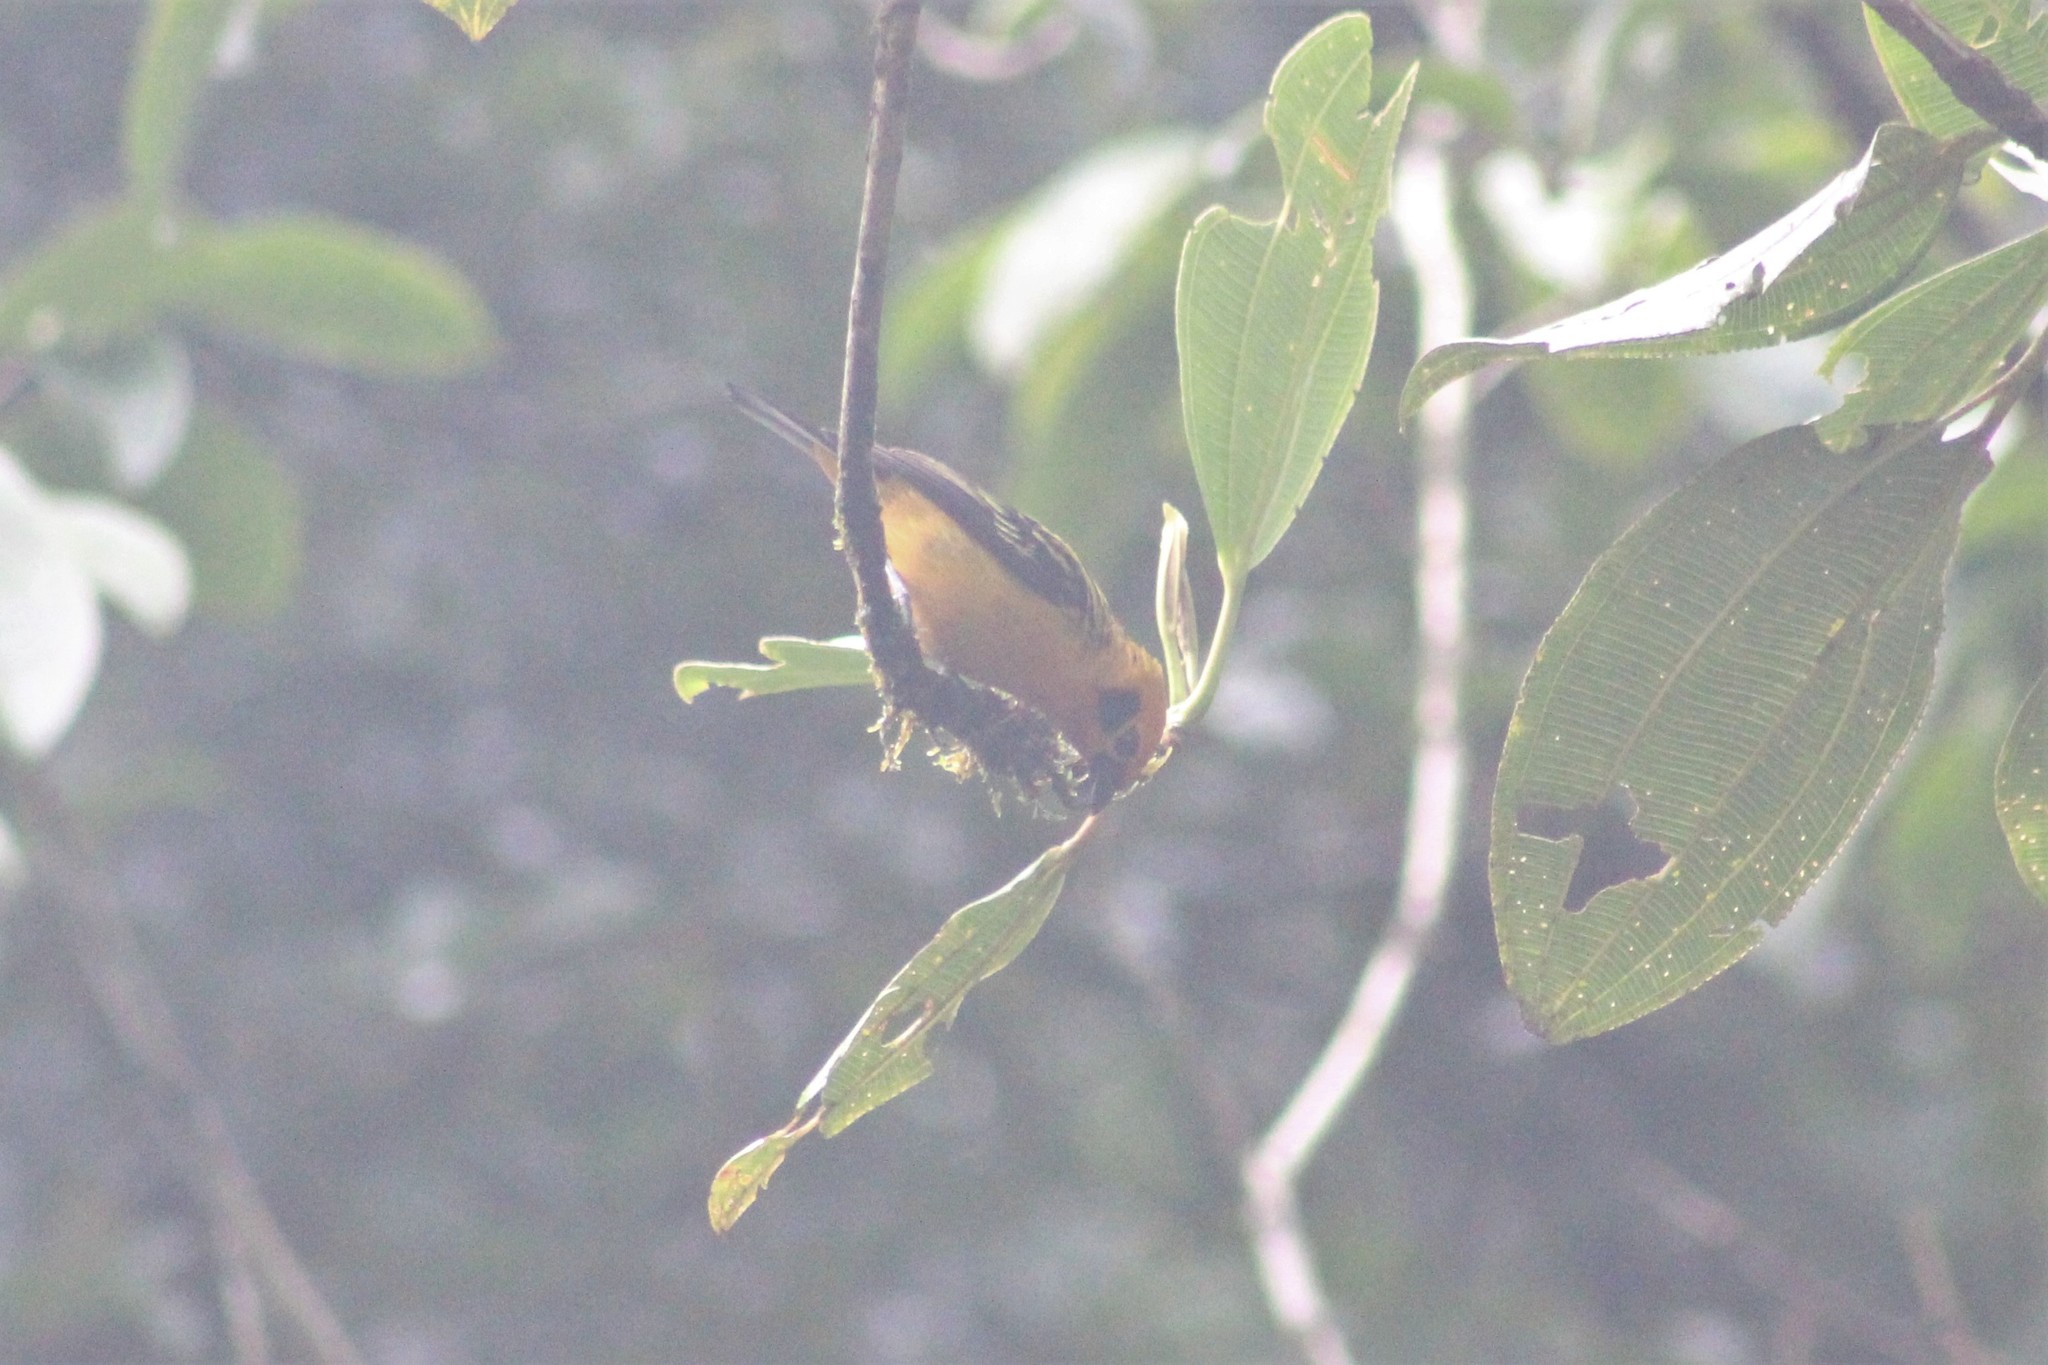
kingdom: Animalia
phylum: Chordata
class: Aves
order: Passeriformes
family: Thraupidae
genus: Tangara
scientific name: Tangara arthus
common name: Golden tanager
